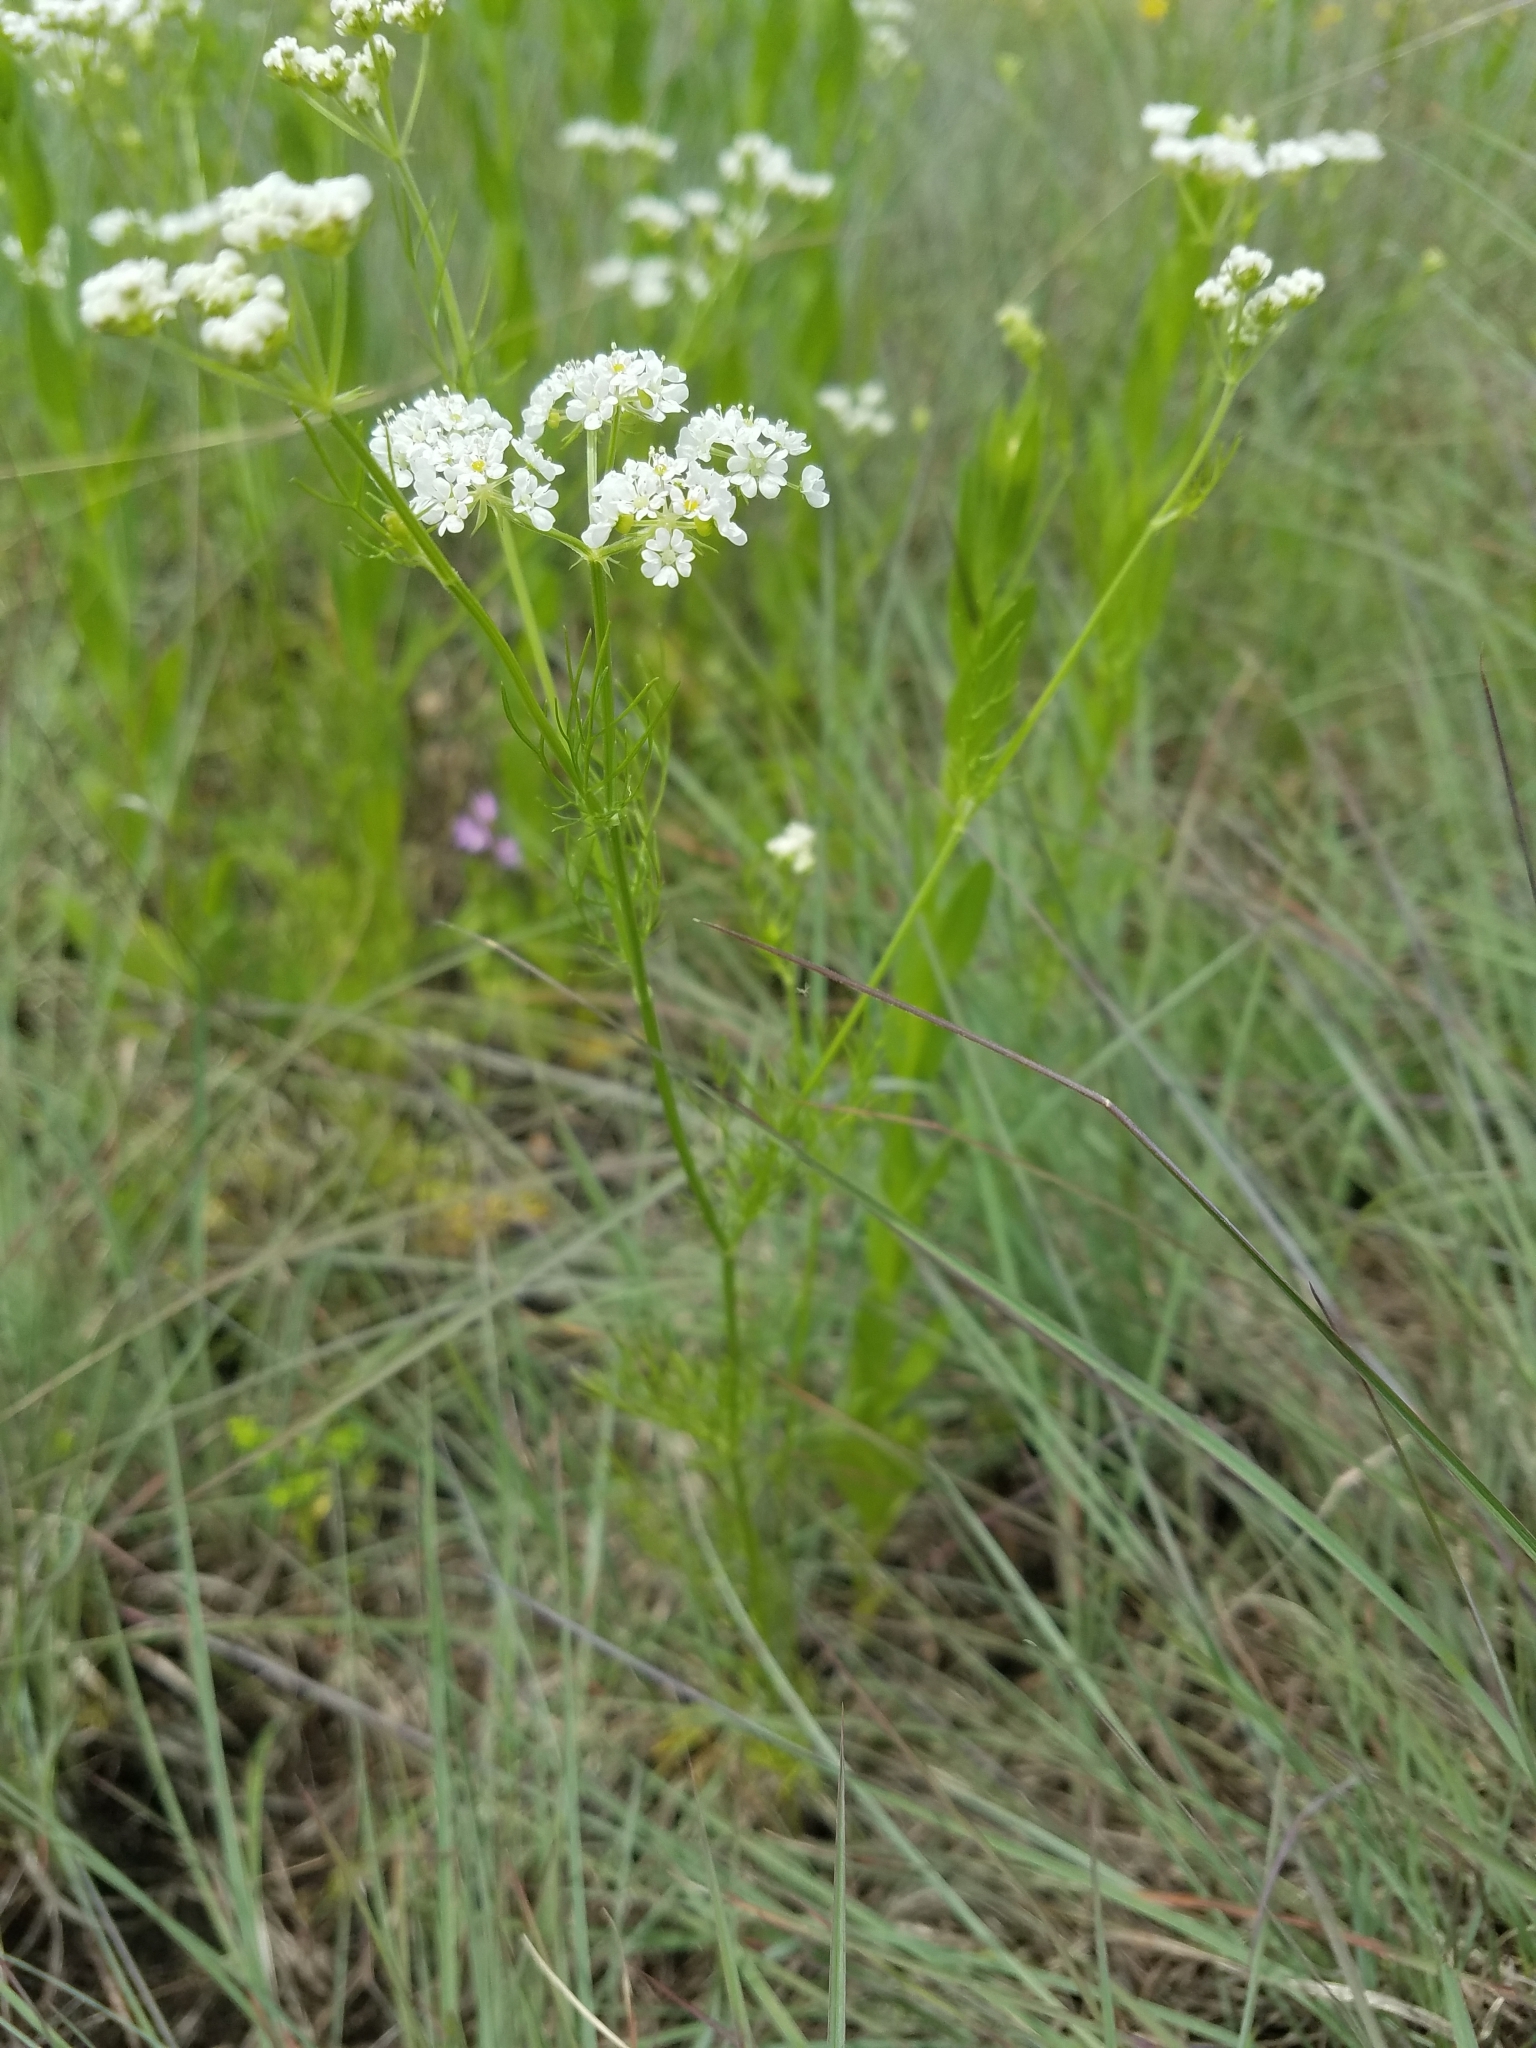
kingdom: Plantae
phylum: Tracheophyta
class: Magnoliopsida
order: Apiales
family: Apiaceae
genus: Atrema
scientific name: Atrema americanum
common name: Prairie-bishop
